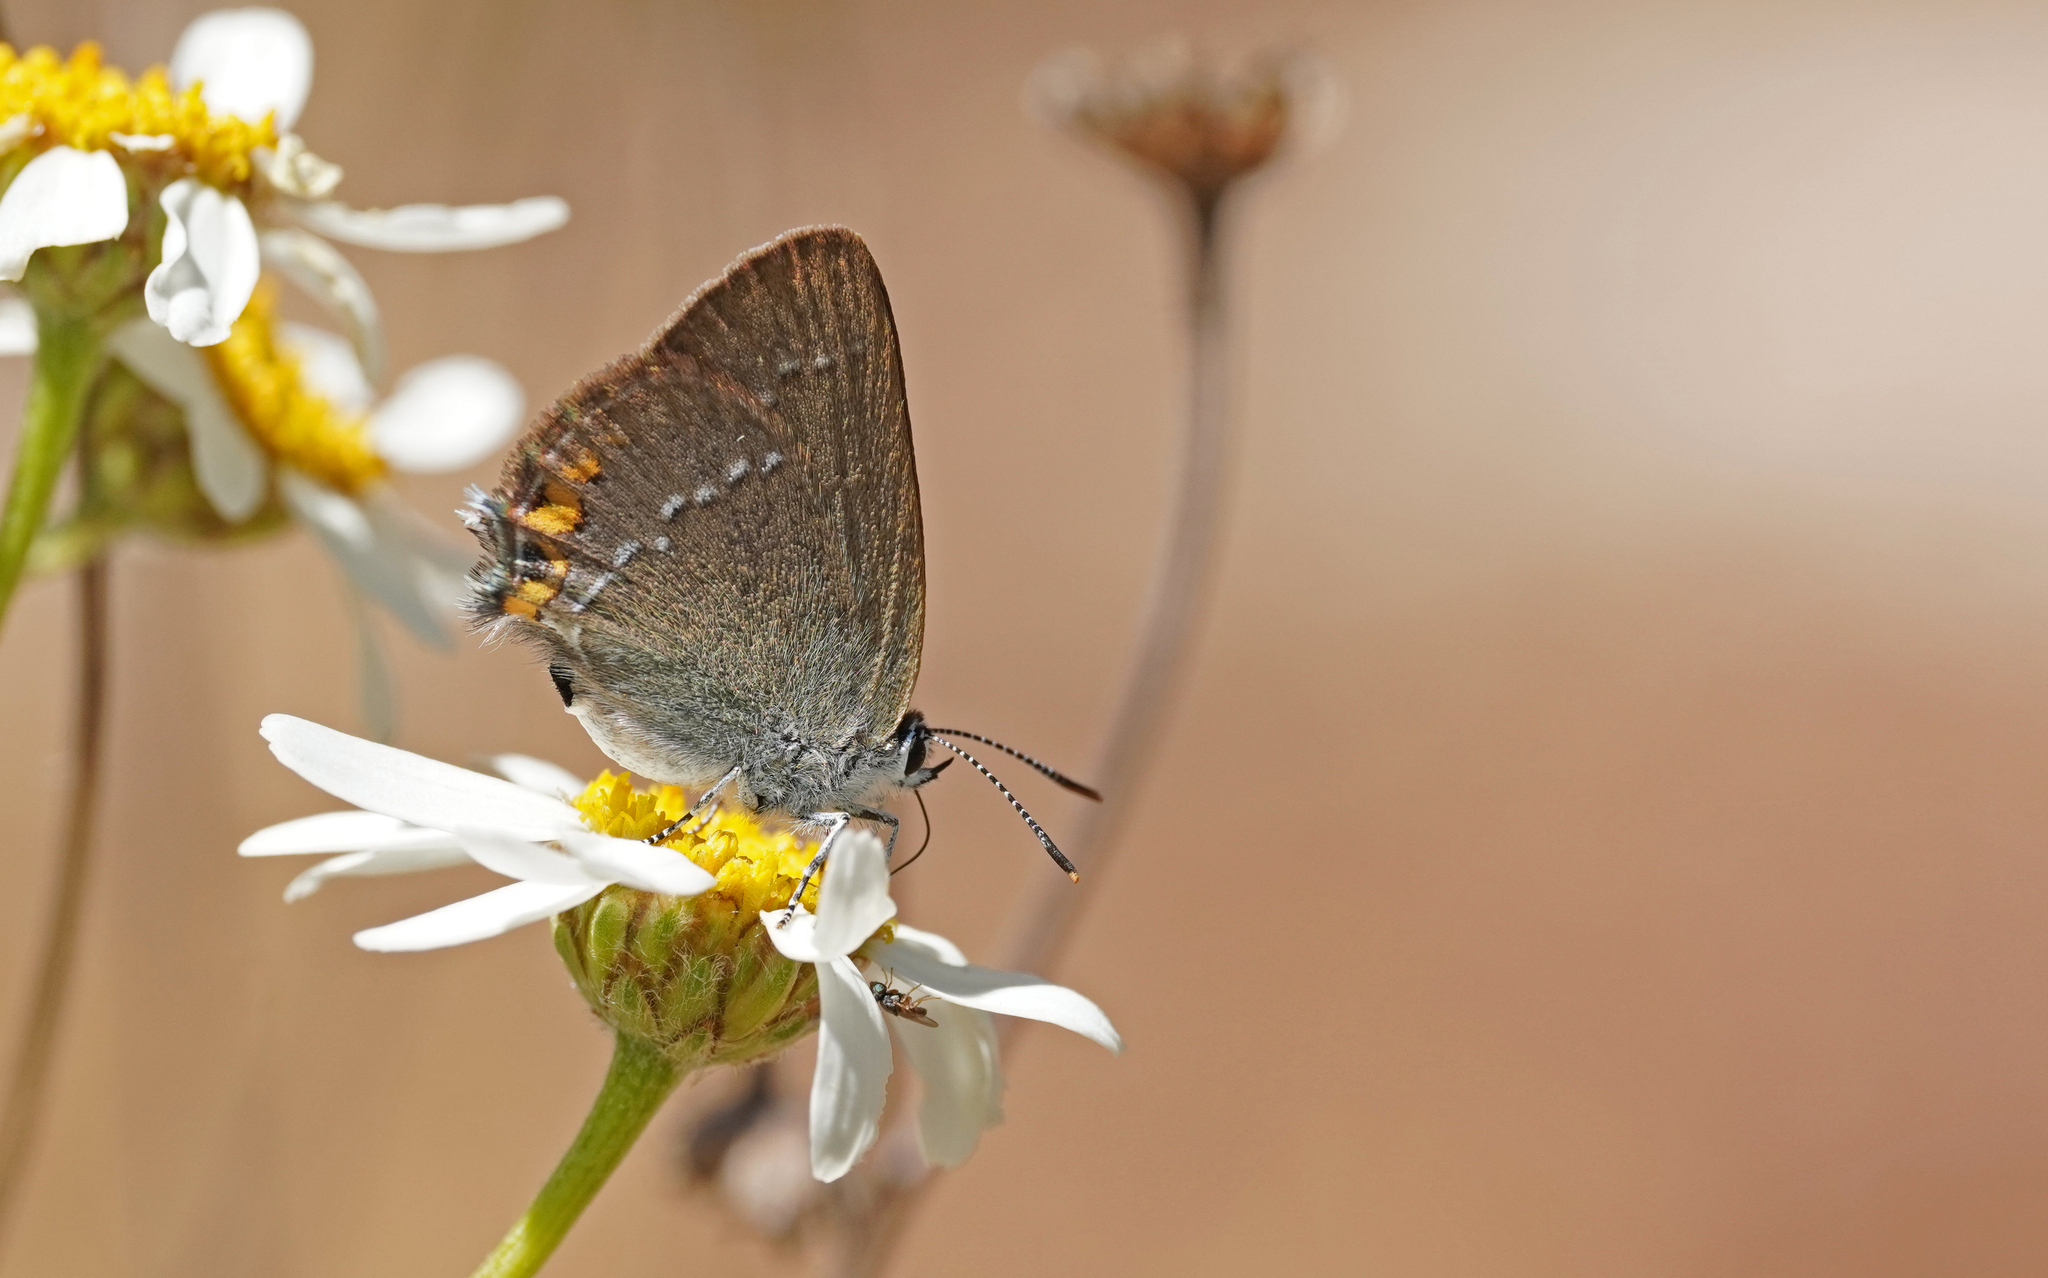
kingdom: Animalia
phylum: Arthropoda
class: Insecta
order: Lepidoptera
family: Lycaenidae
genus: Strymon
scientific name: Strymon acaciae
